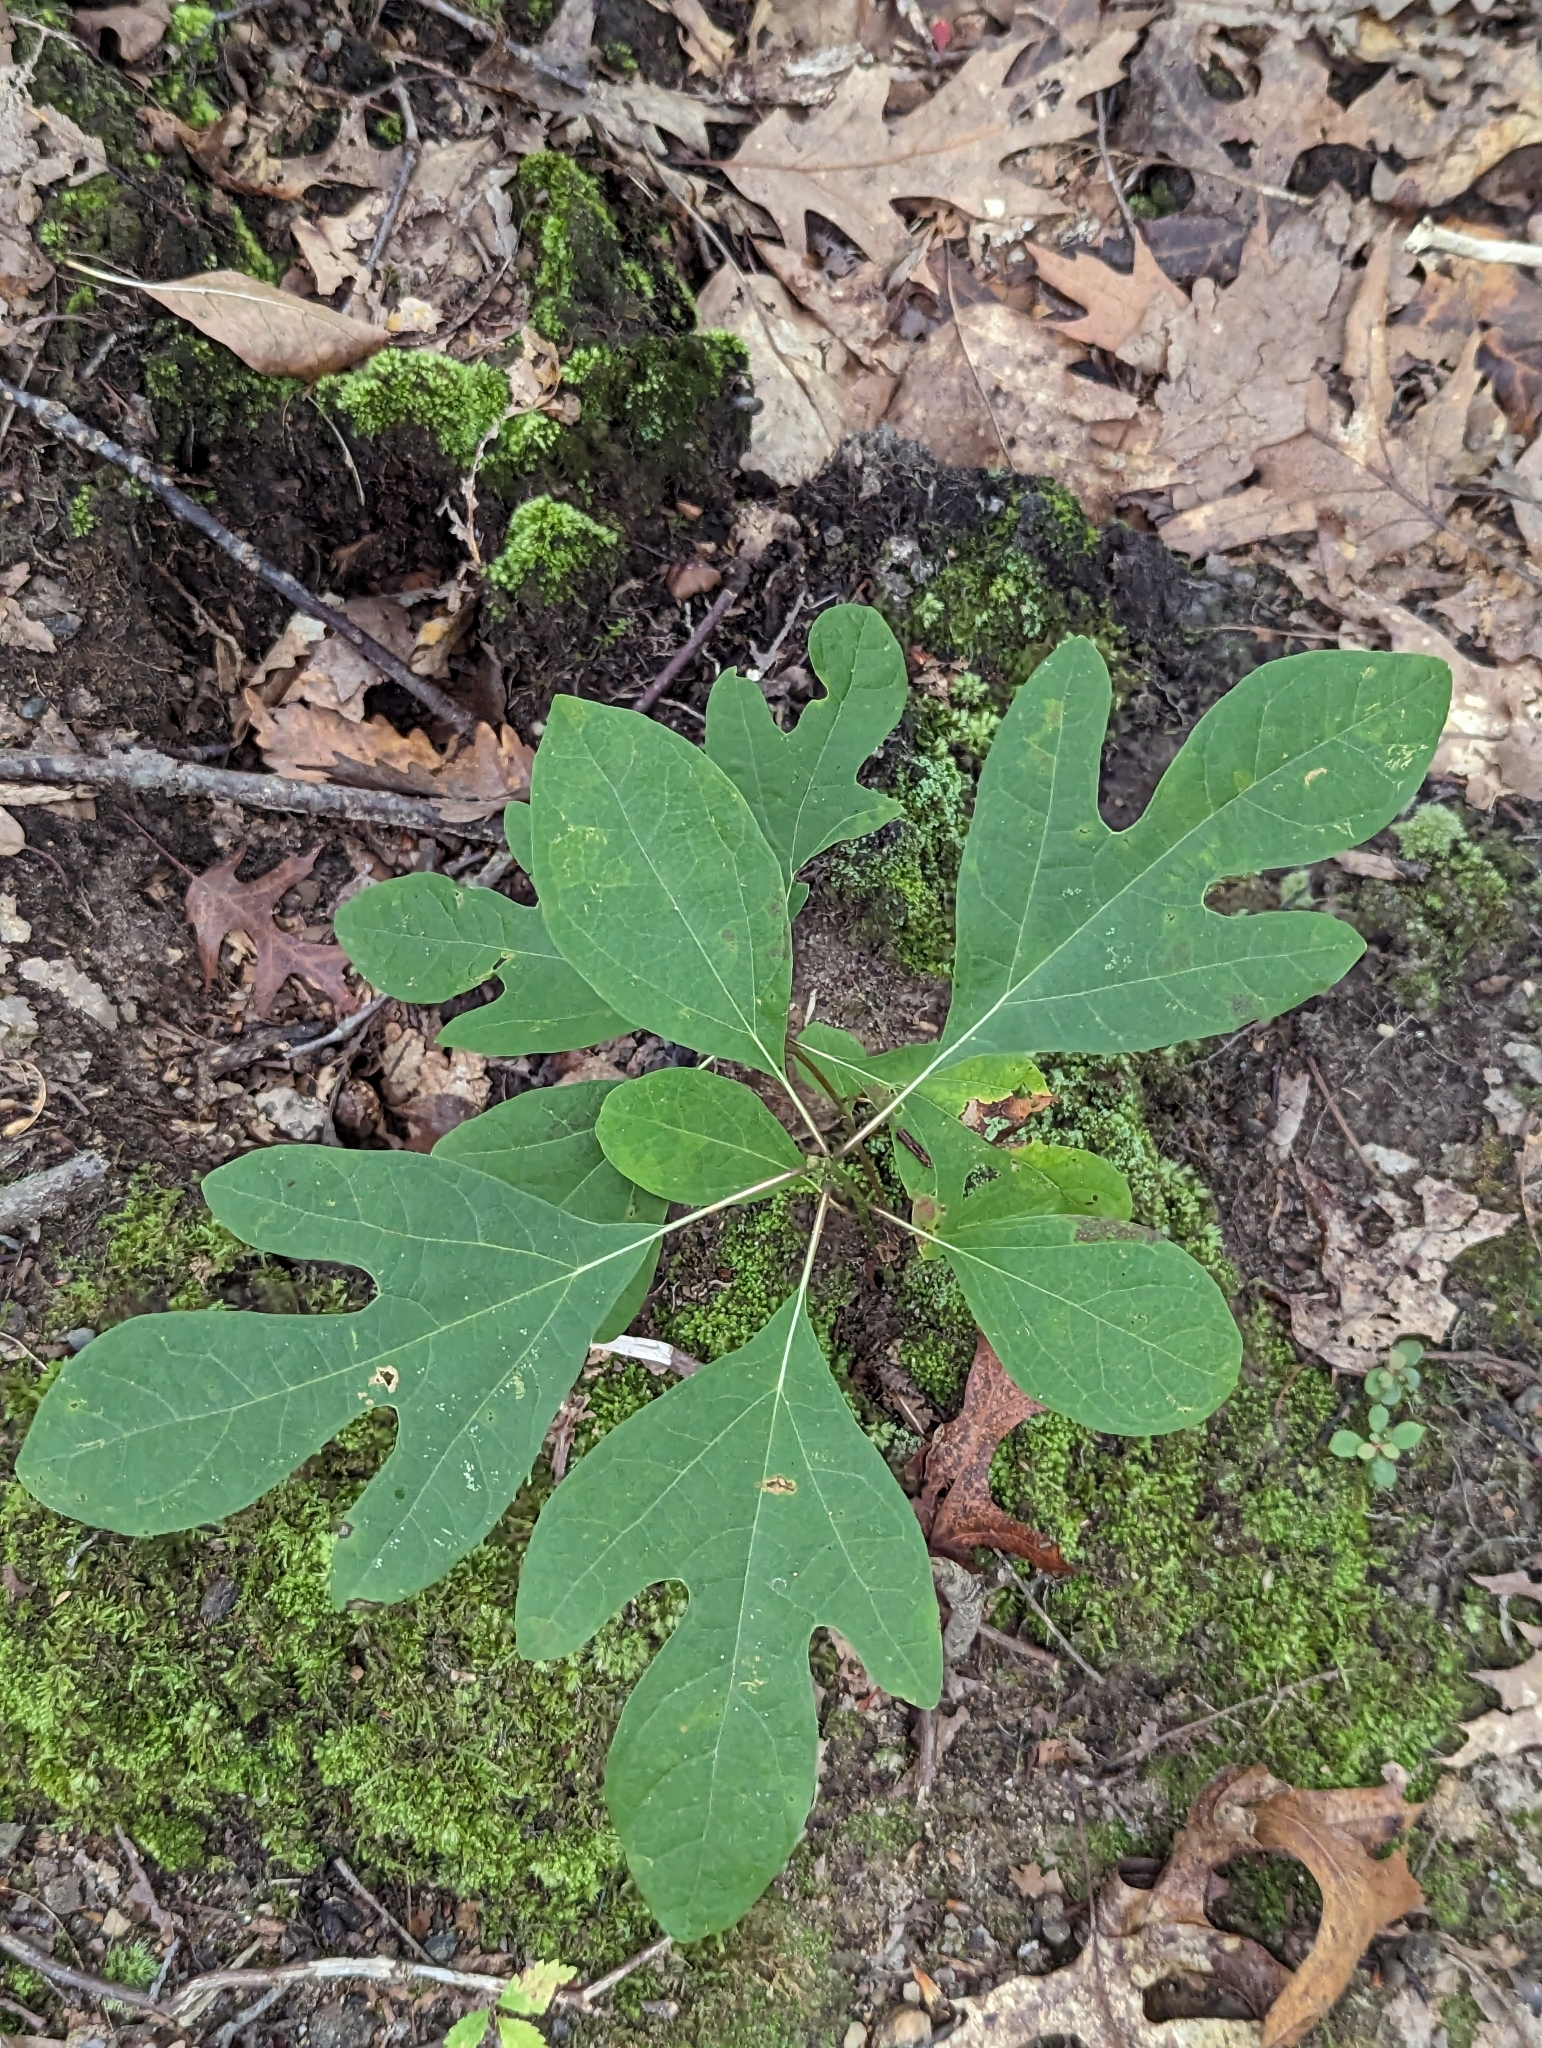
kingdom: Plantae
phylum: Tracheophyta
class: Magnoliopsida
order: Laurales
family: Lauraceae
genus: Sassafras
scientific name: Sassafras albidum
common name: Sassafras
